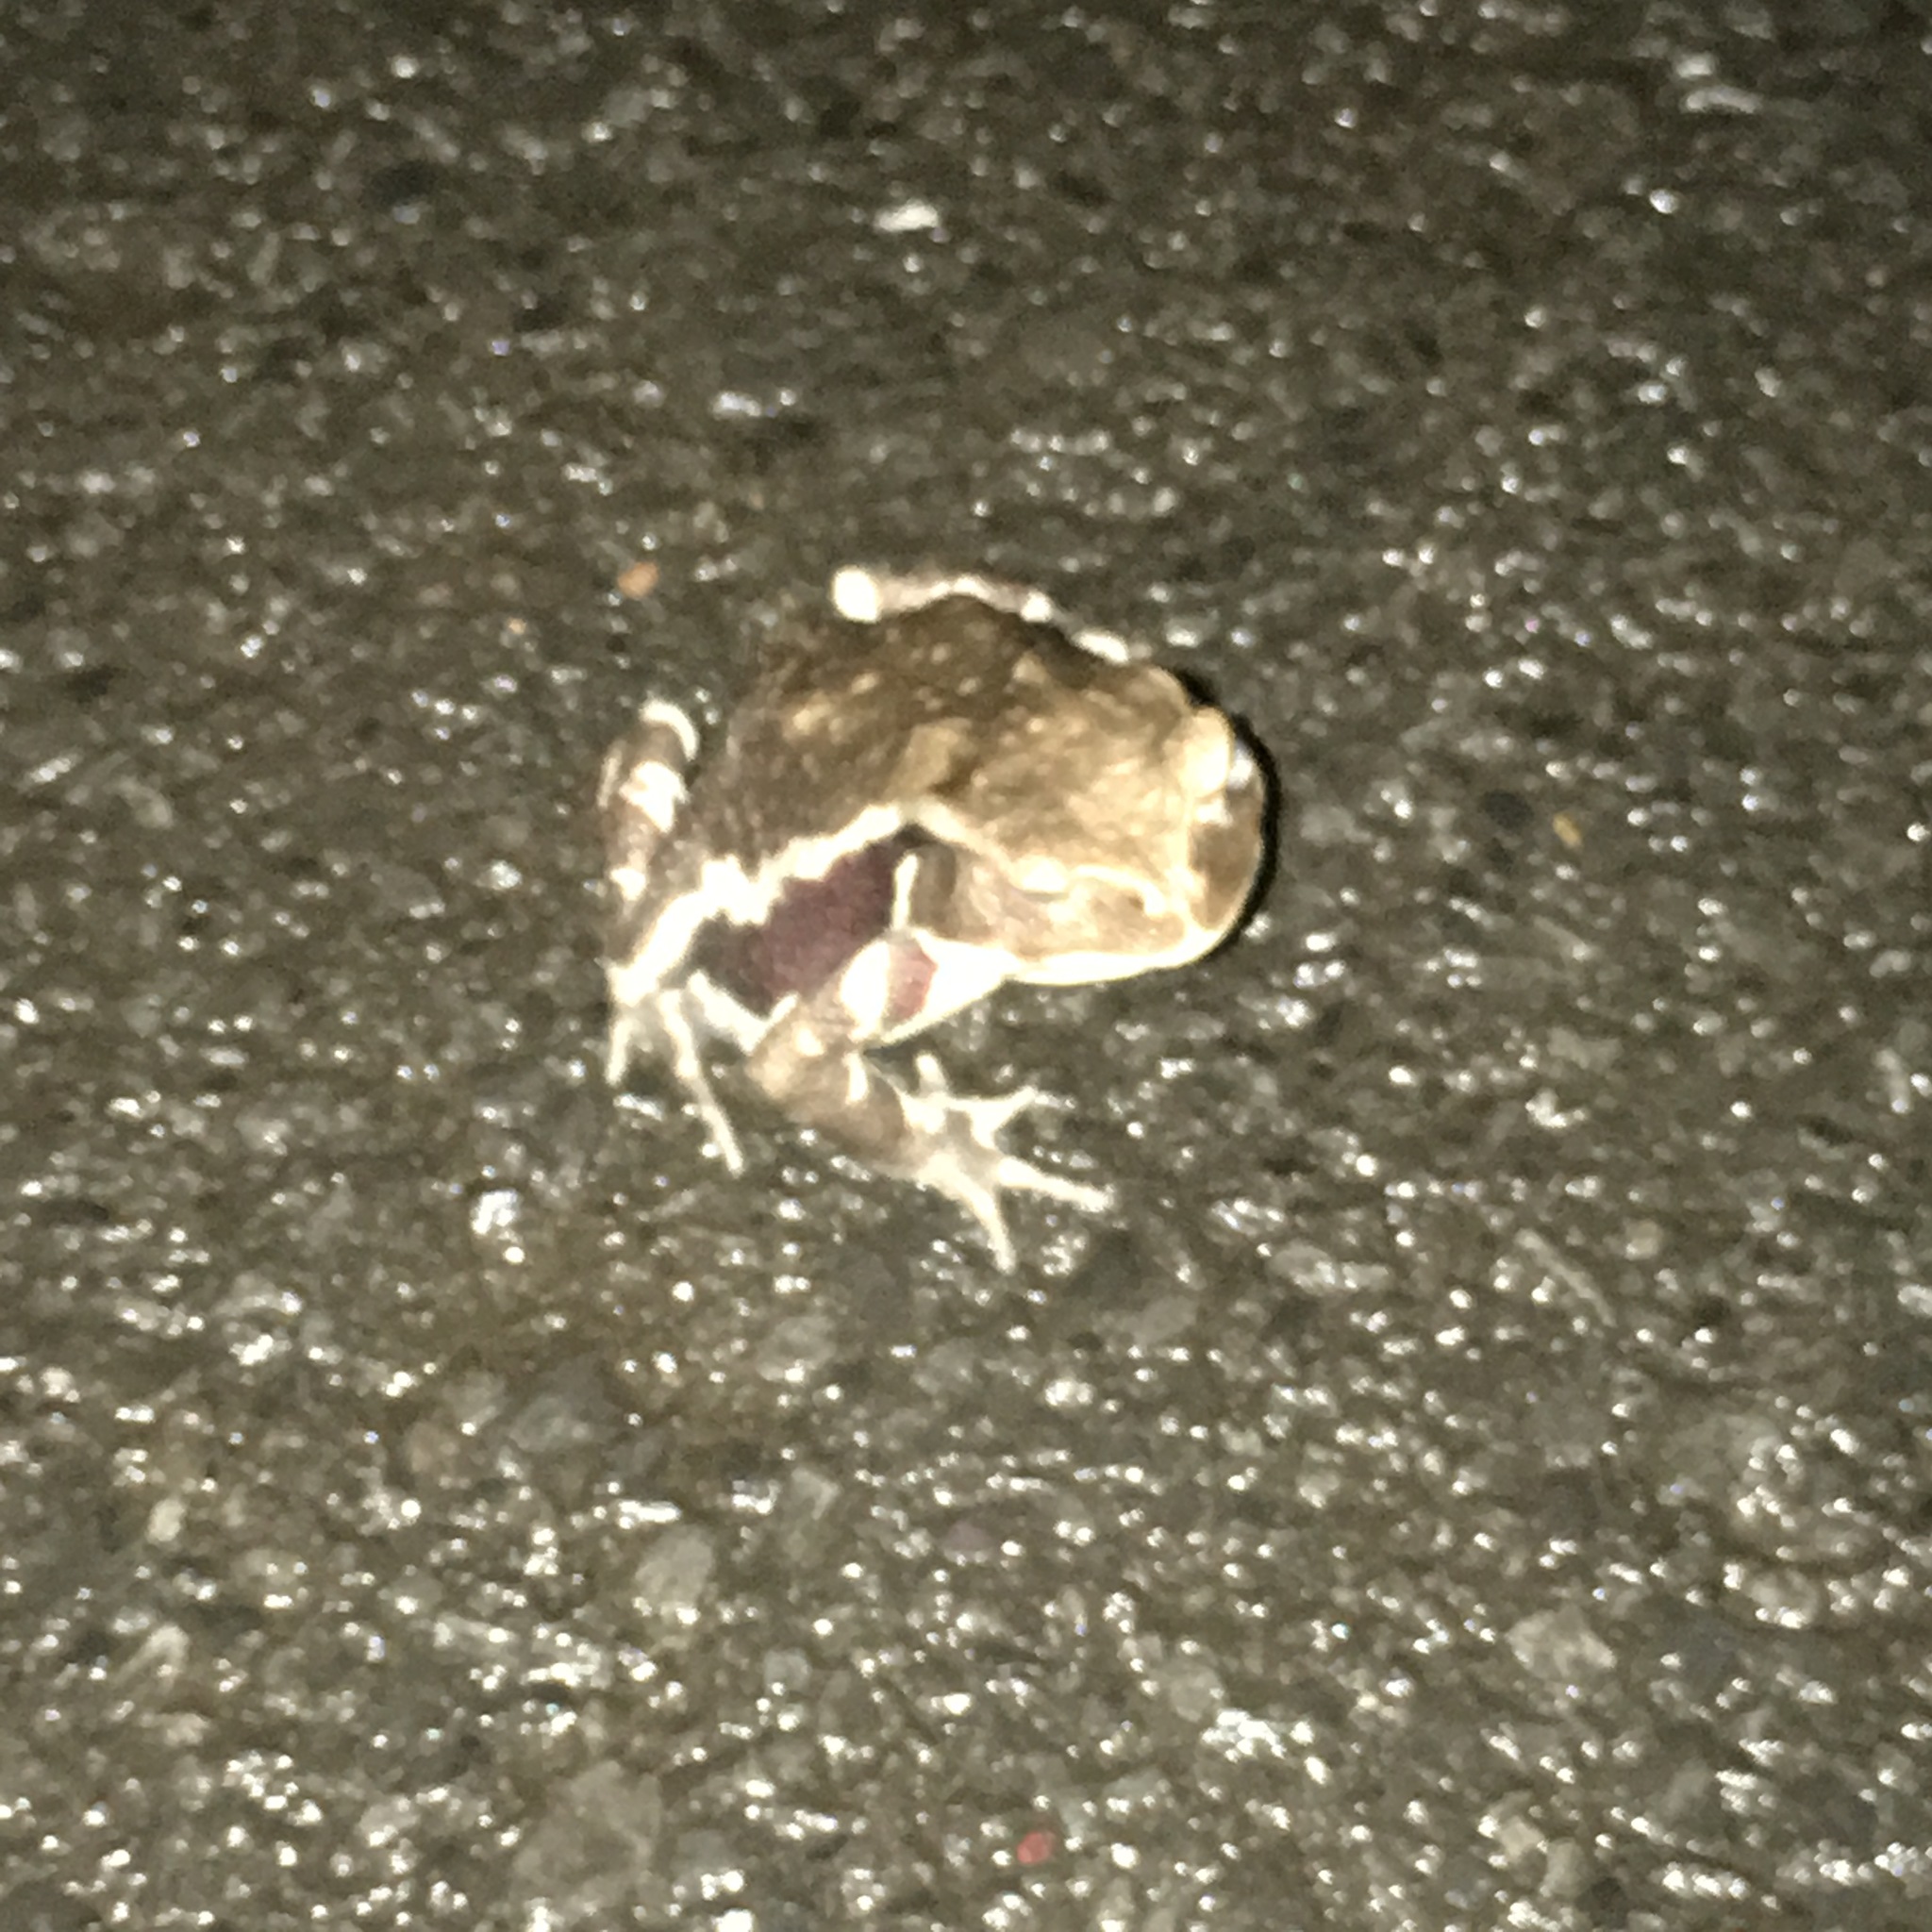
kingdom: Animalia
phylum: Chordata
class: Amphibia
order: Anura
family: Bufonidae
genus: Bufo
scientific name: Bufo japonicus
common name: Japanese common toad
